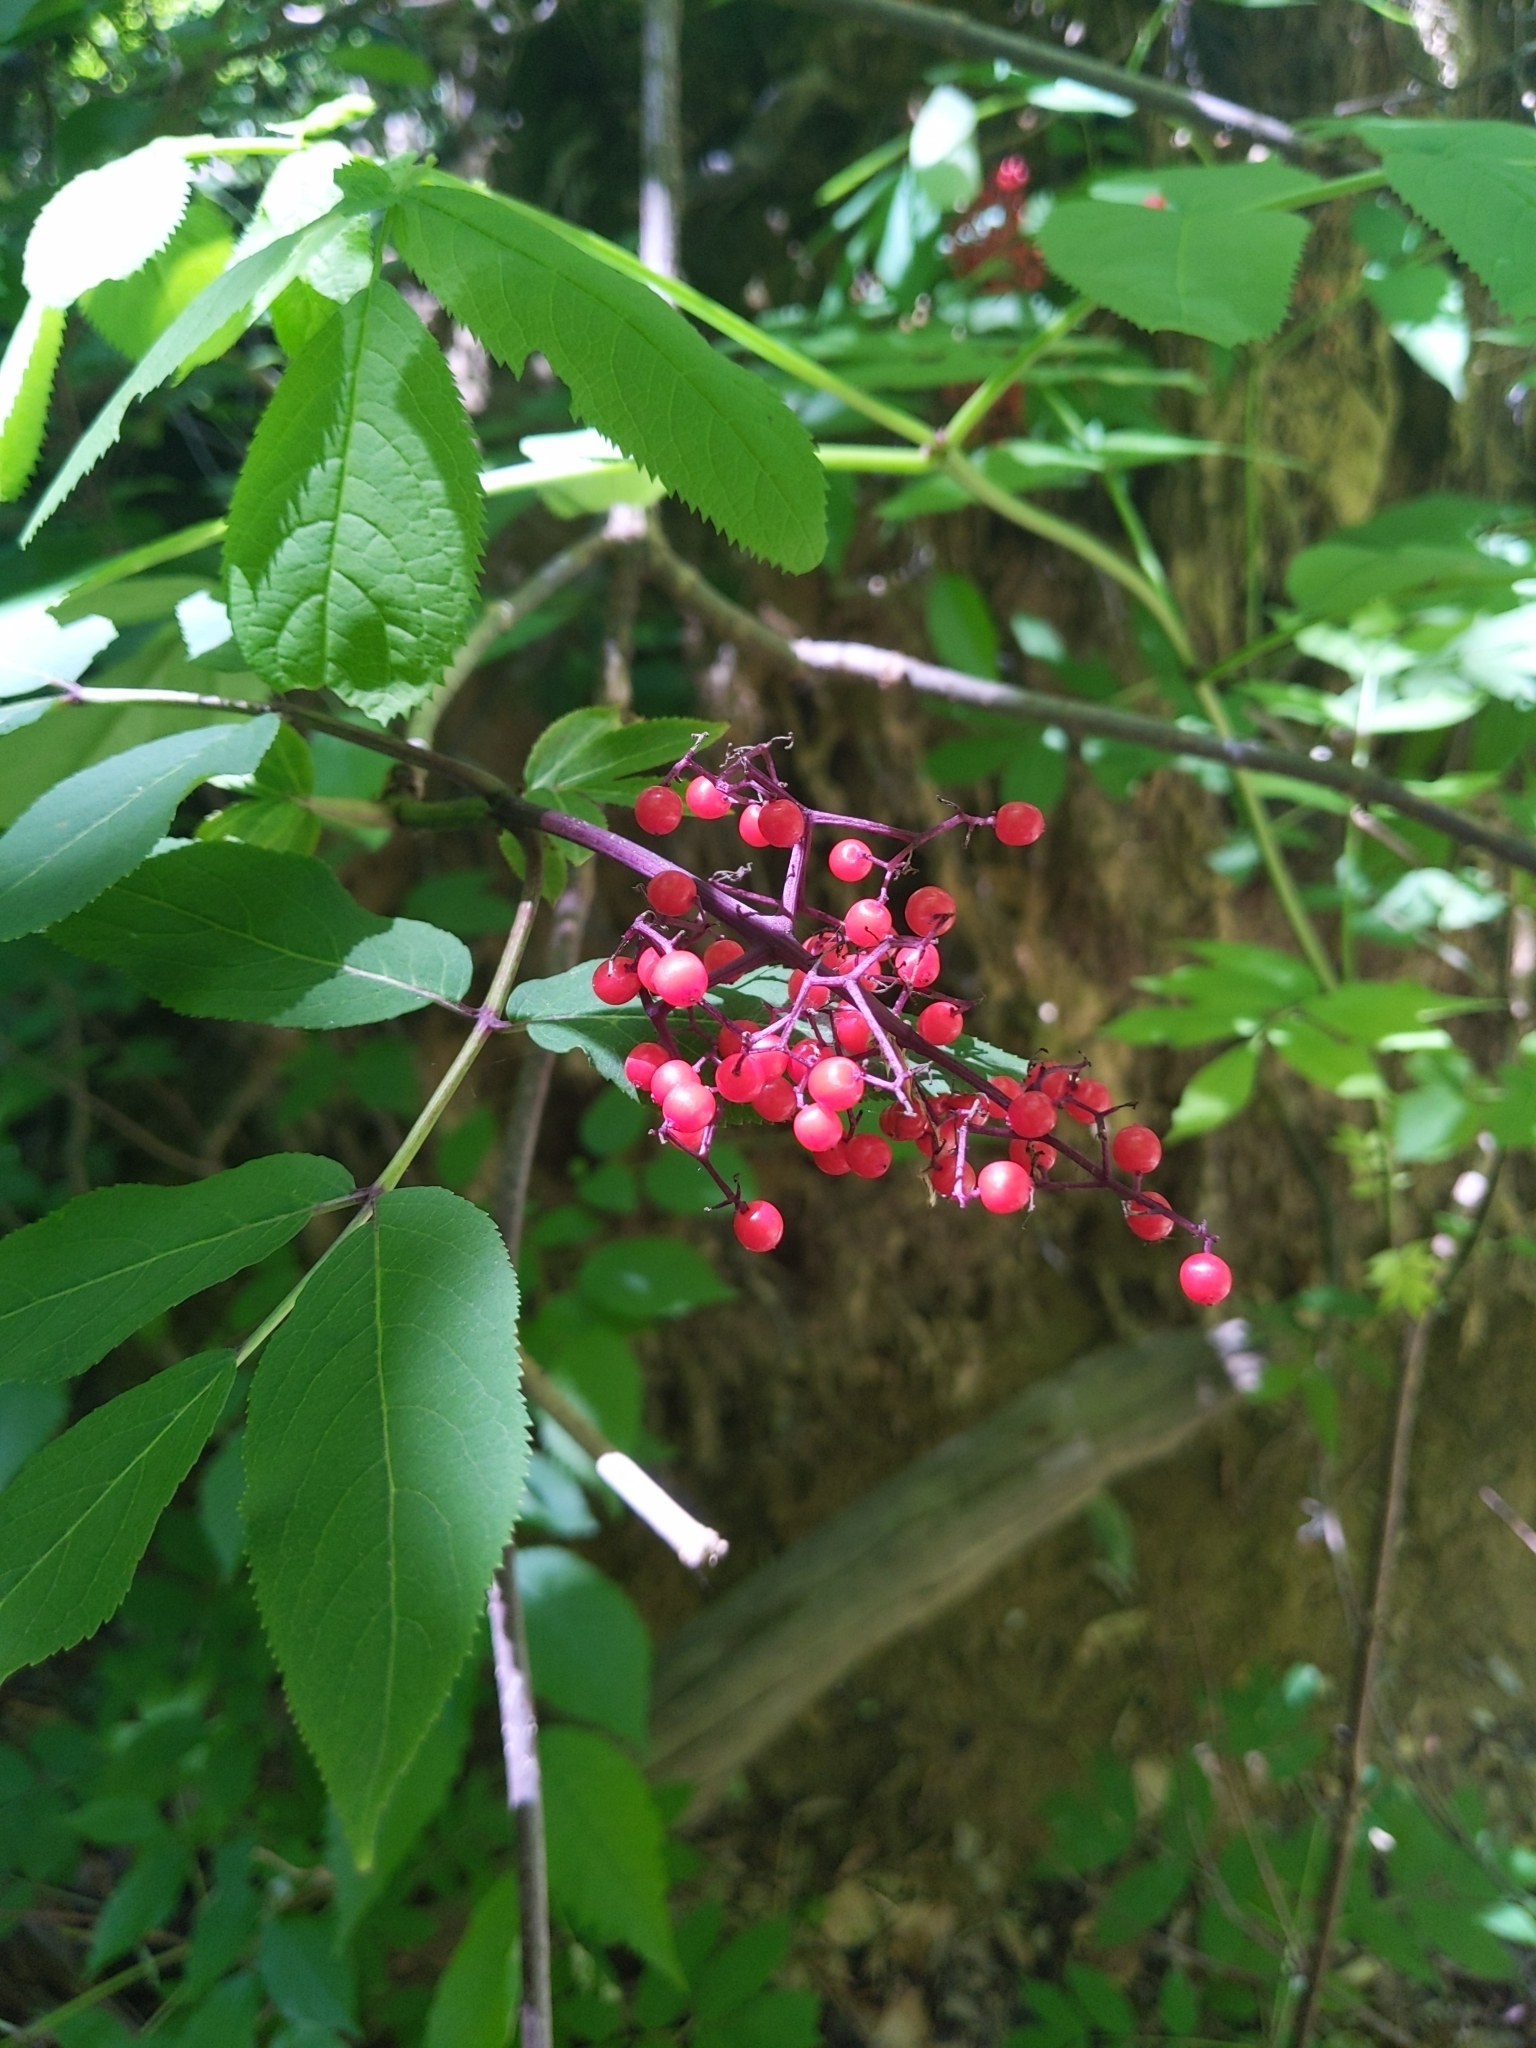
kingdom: Plantae
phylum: Tracheophyta
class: Magnoliopsida
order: Dipsacales
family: Viburnaceae
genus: Sambucus
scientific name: Sambucus racemosa
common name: Red-berried elder
